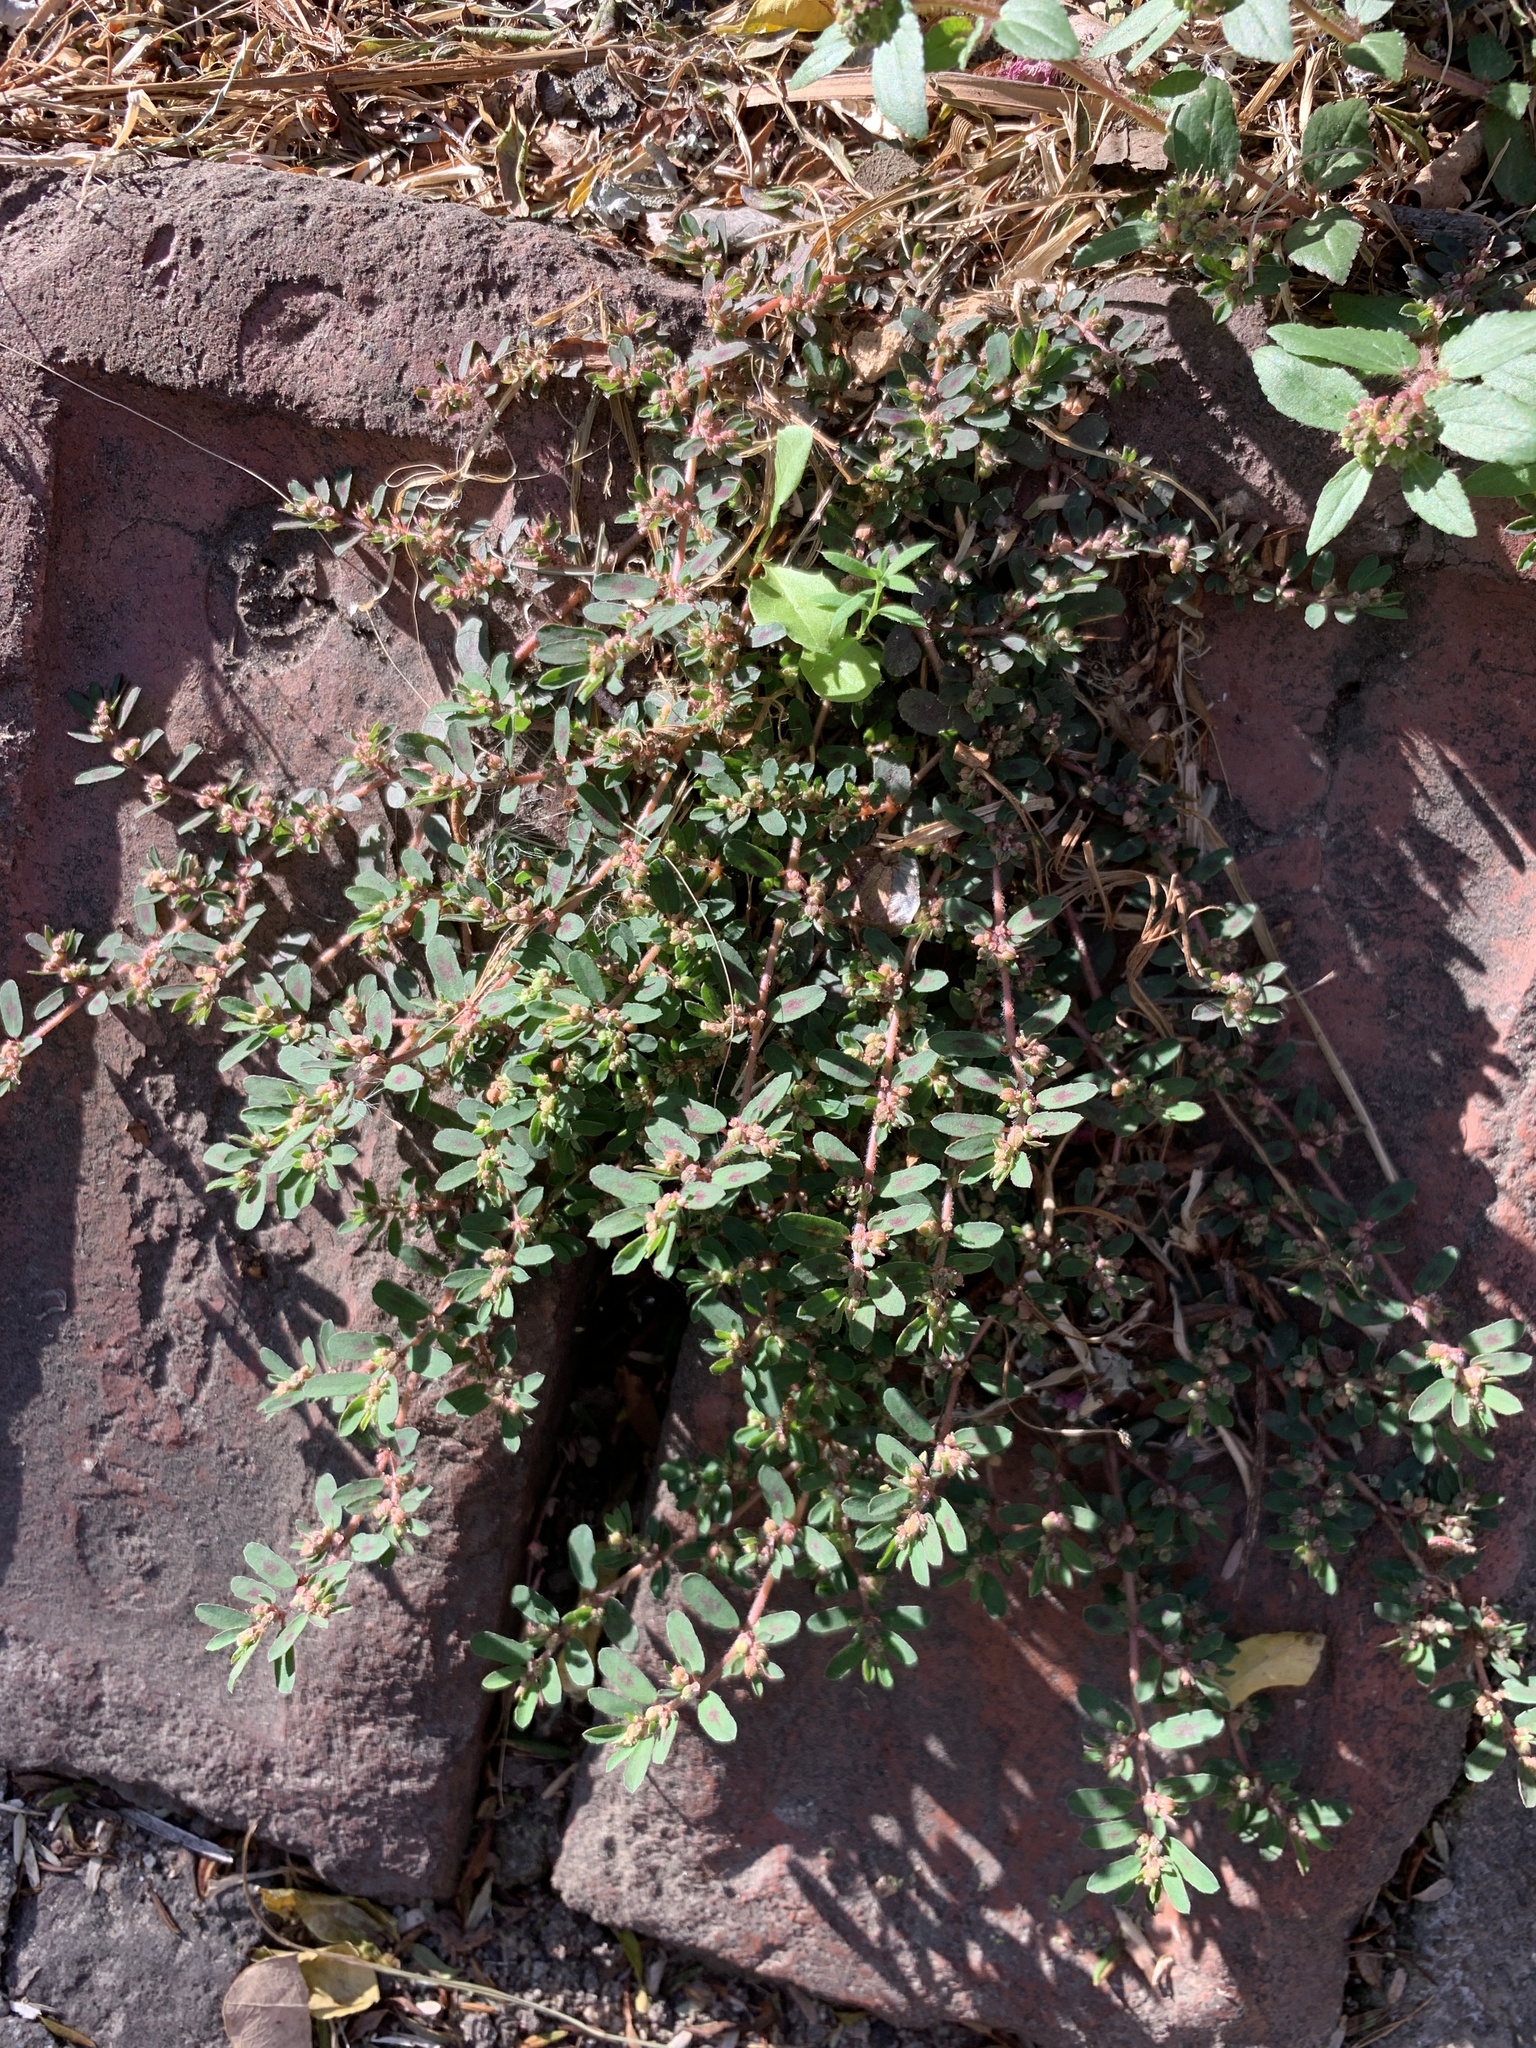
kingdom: Plantae
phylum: Tracheophyta
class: Magnoliopsida
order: Malpighiales
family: Euphorbiaceae
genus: Euphorbia
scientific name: Euphorbia maculata
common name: Spotted spurge
